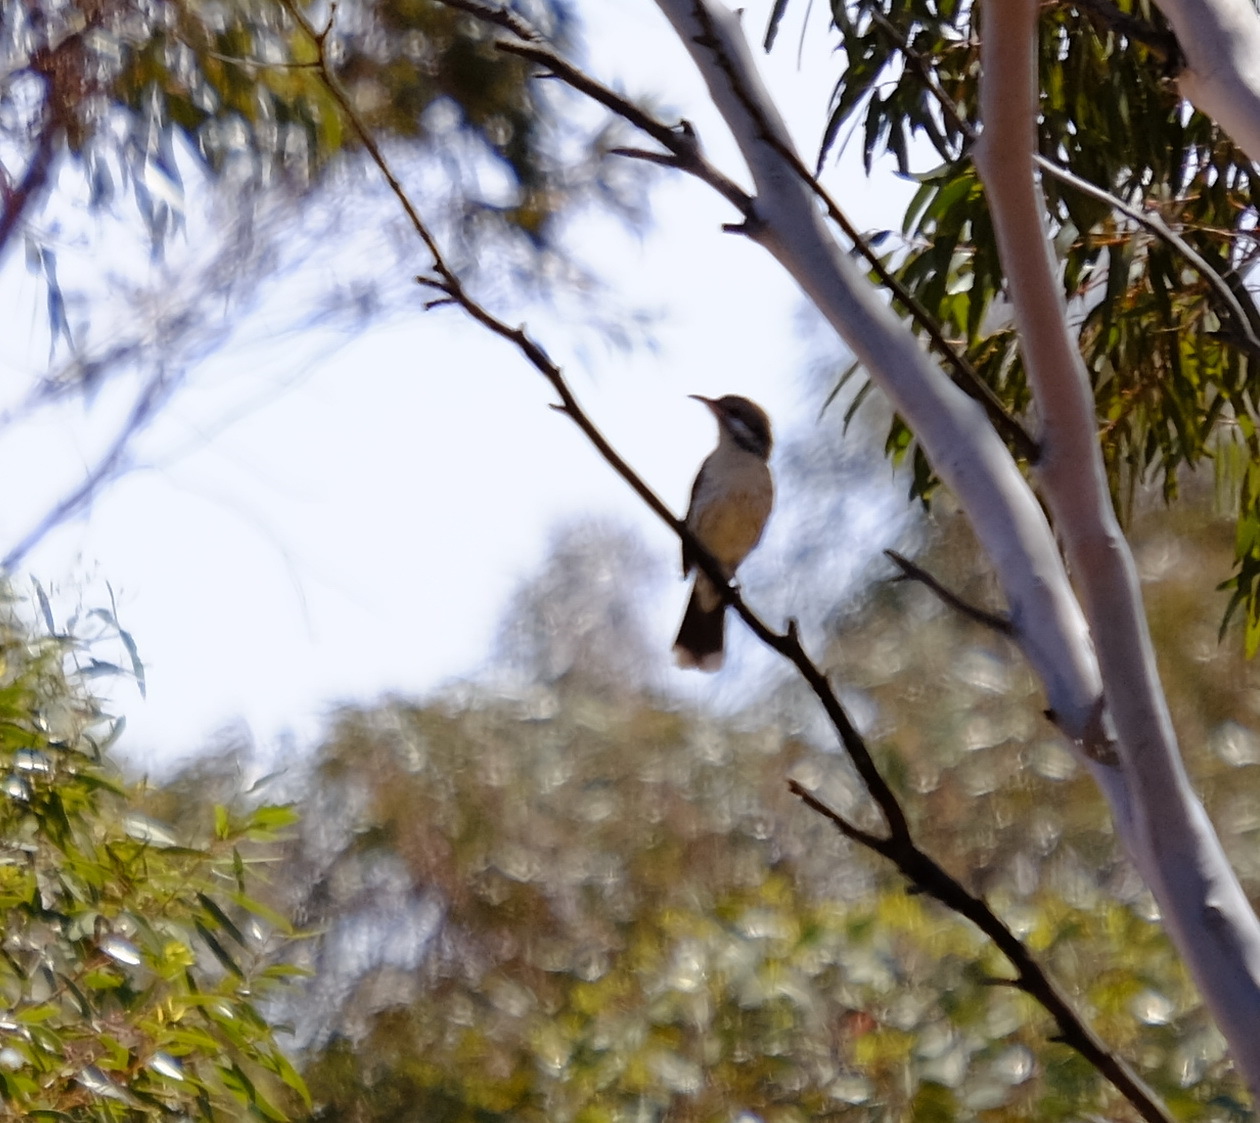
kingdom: Animalia
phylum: Chordata
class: Aves
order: Passeriformes
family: Meliphagidae
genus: Acanthagenys
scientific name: Acanthagenys rufogularis
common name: Spiny-cheeked honeyeater
